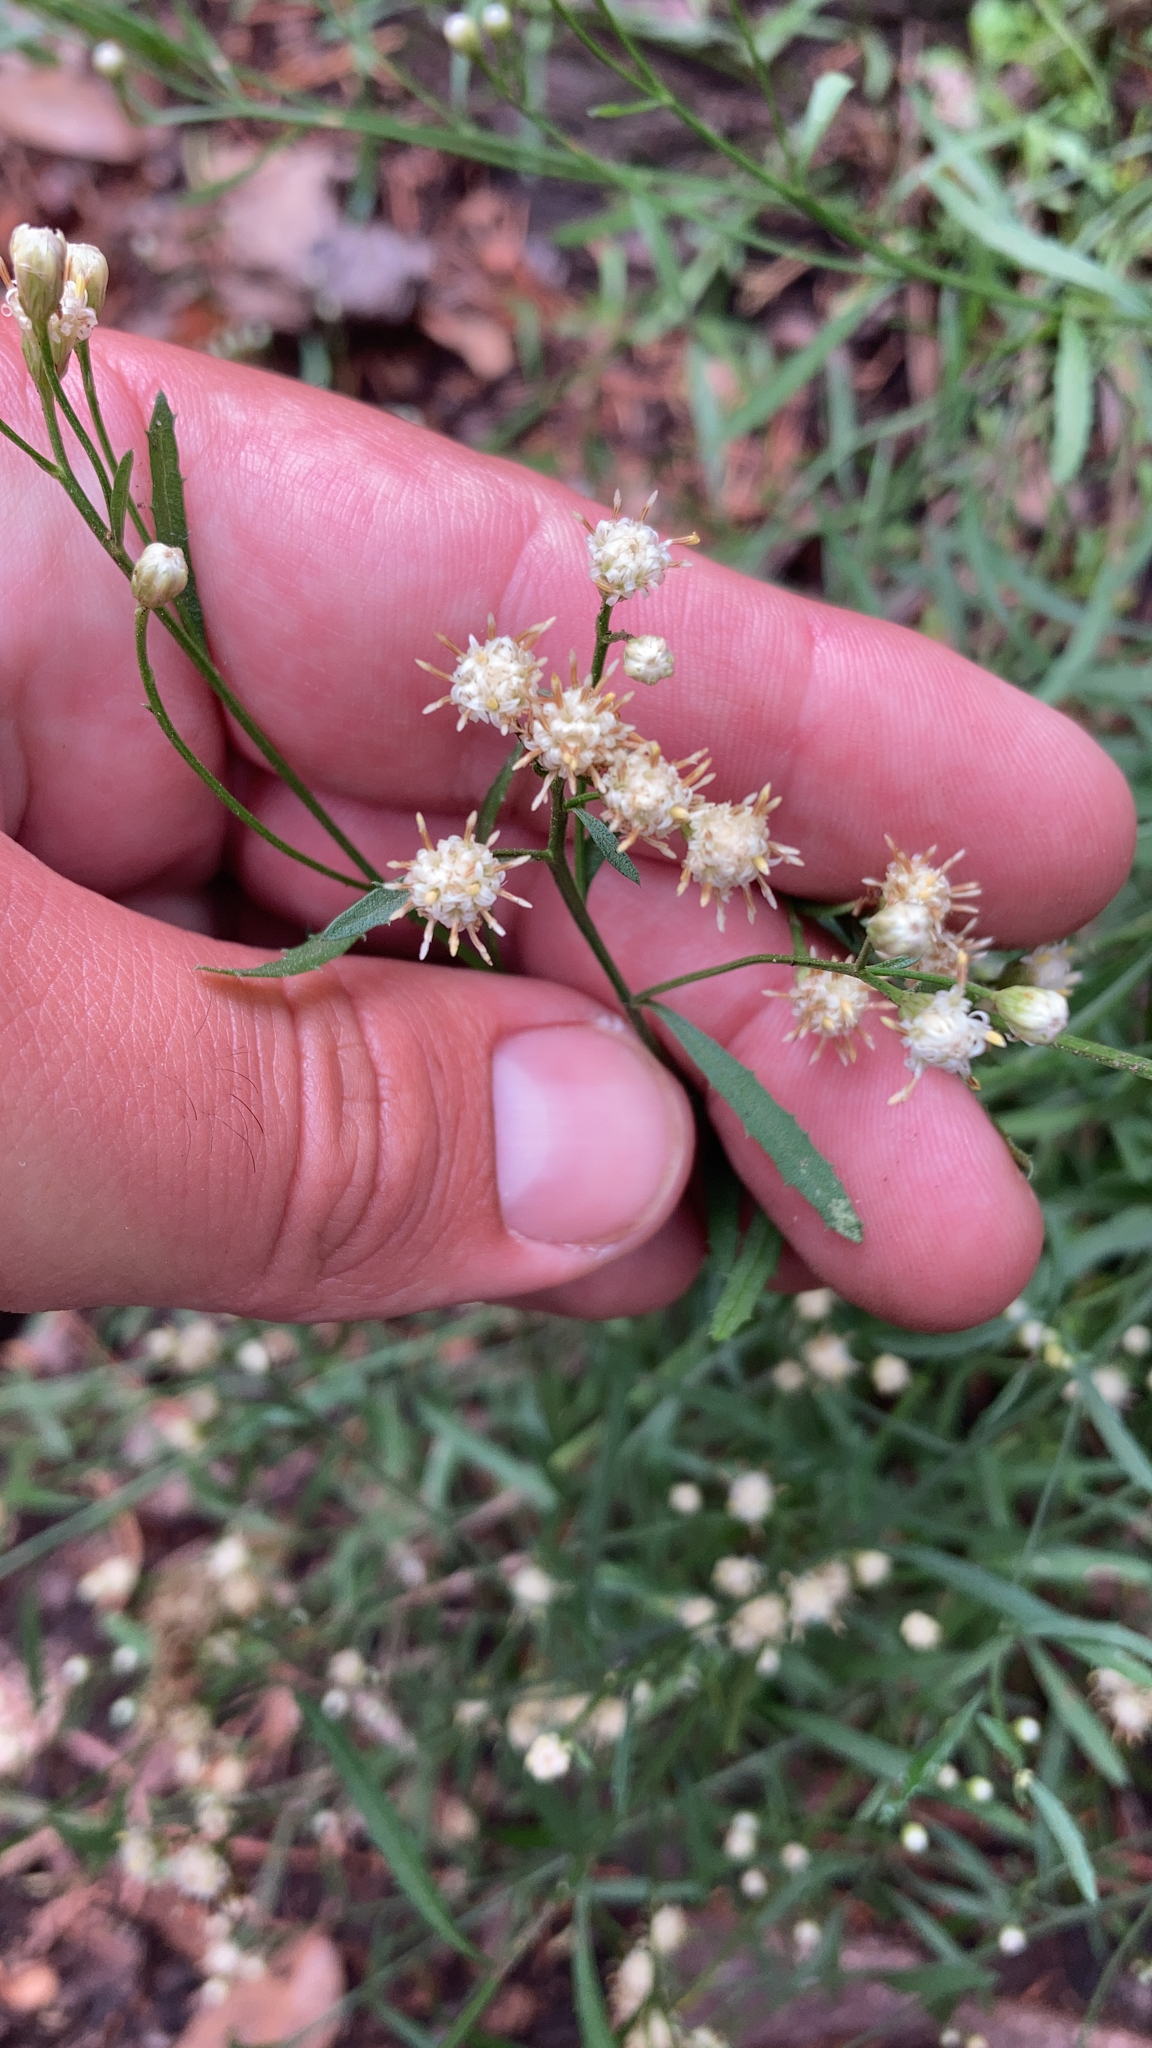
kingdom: Plantae
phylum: Tracheophyta
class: Magnoliopsida
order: Asterales
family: Asteraceae
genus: Baccharis
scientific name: Baccharis thesioides
